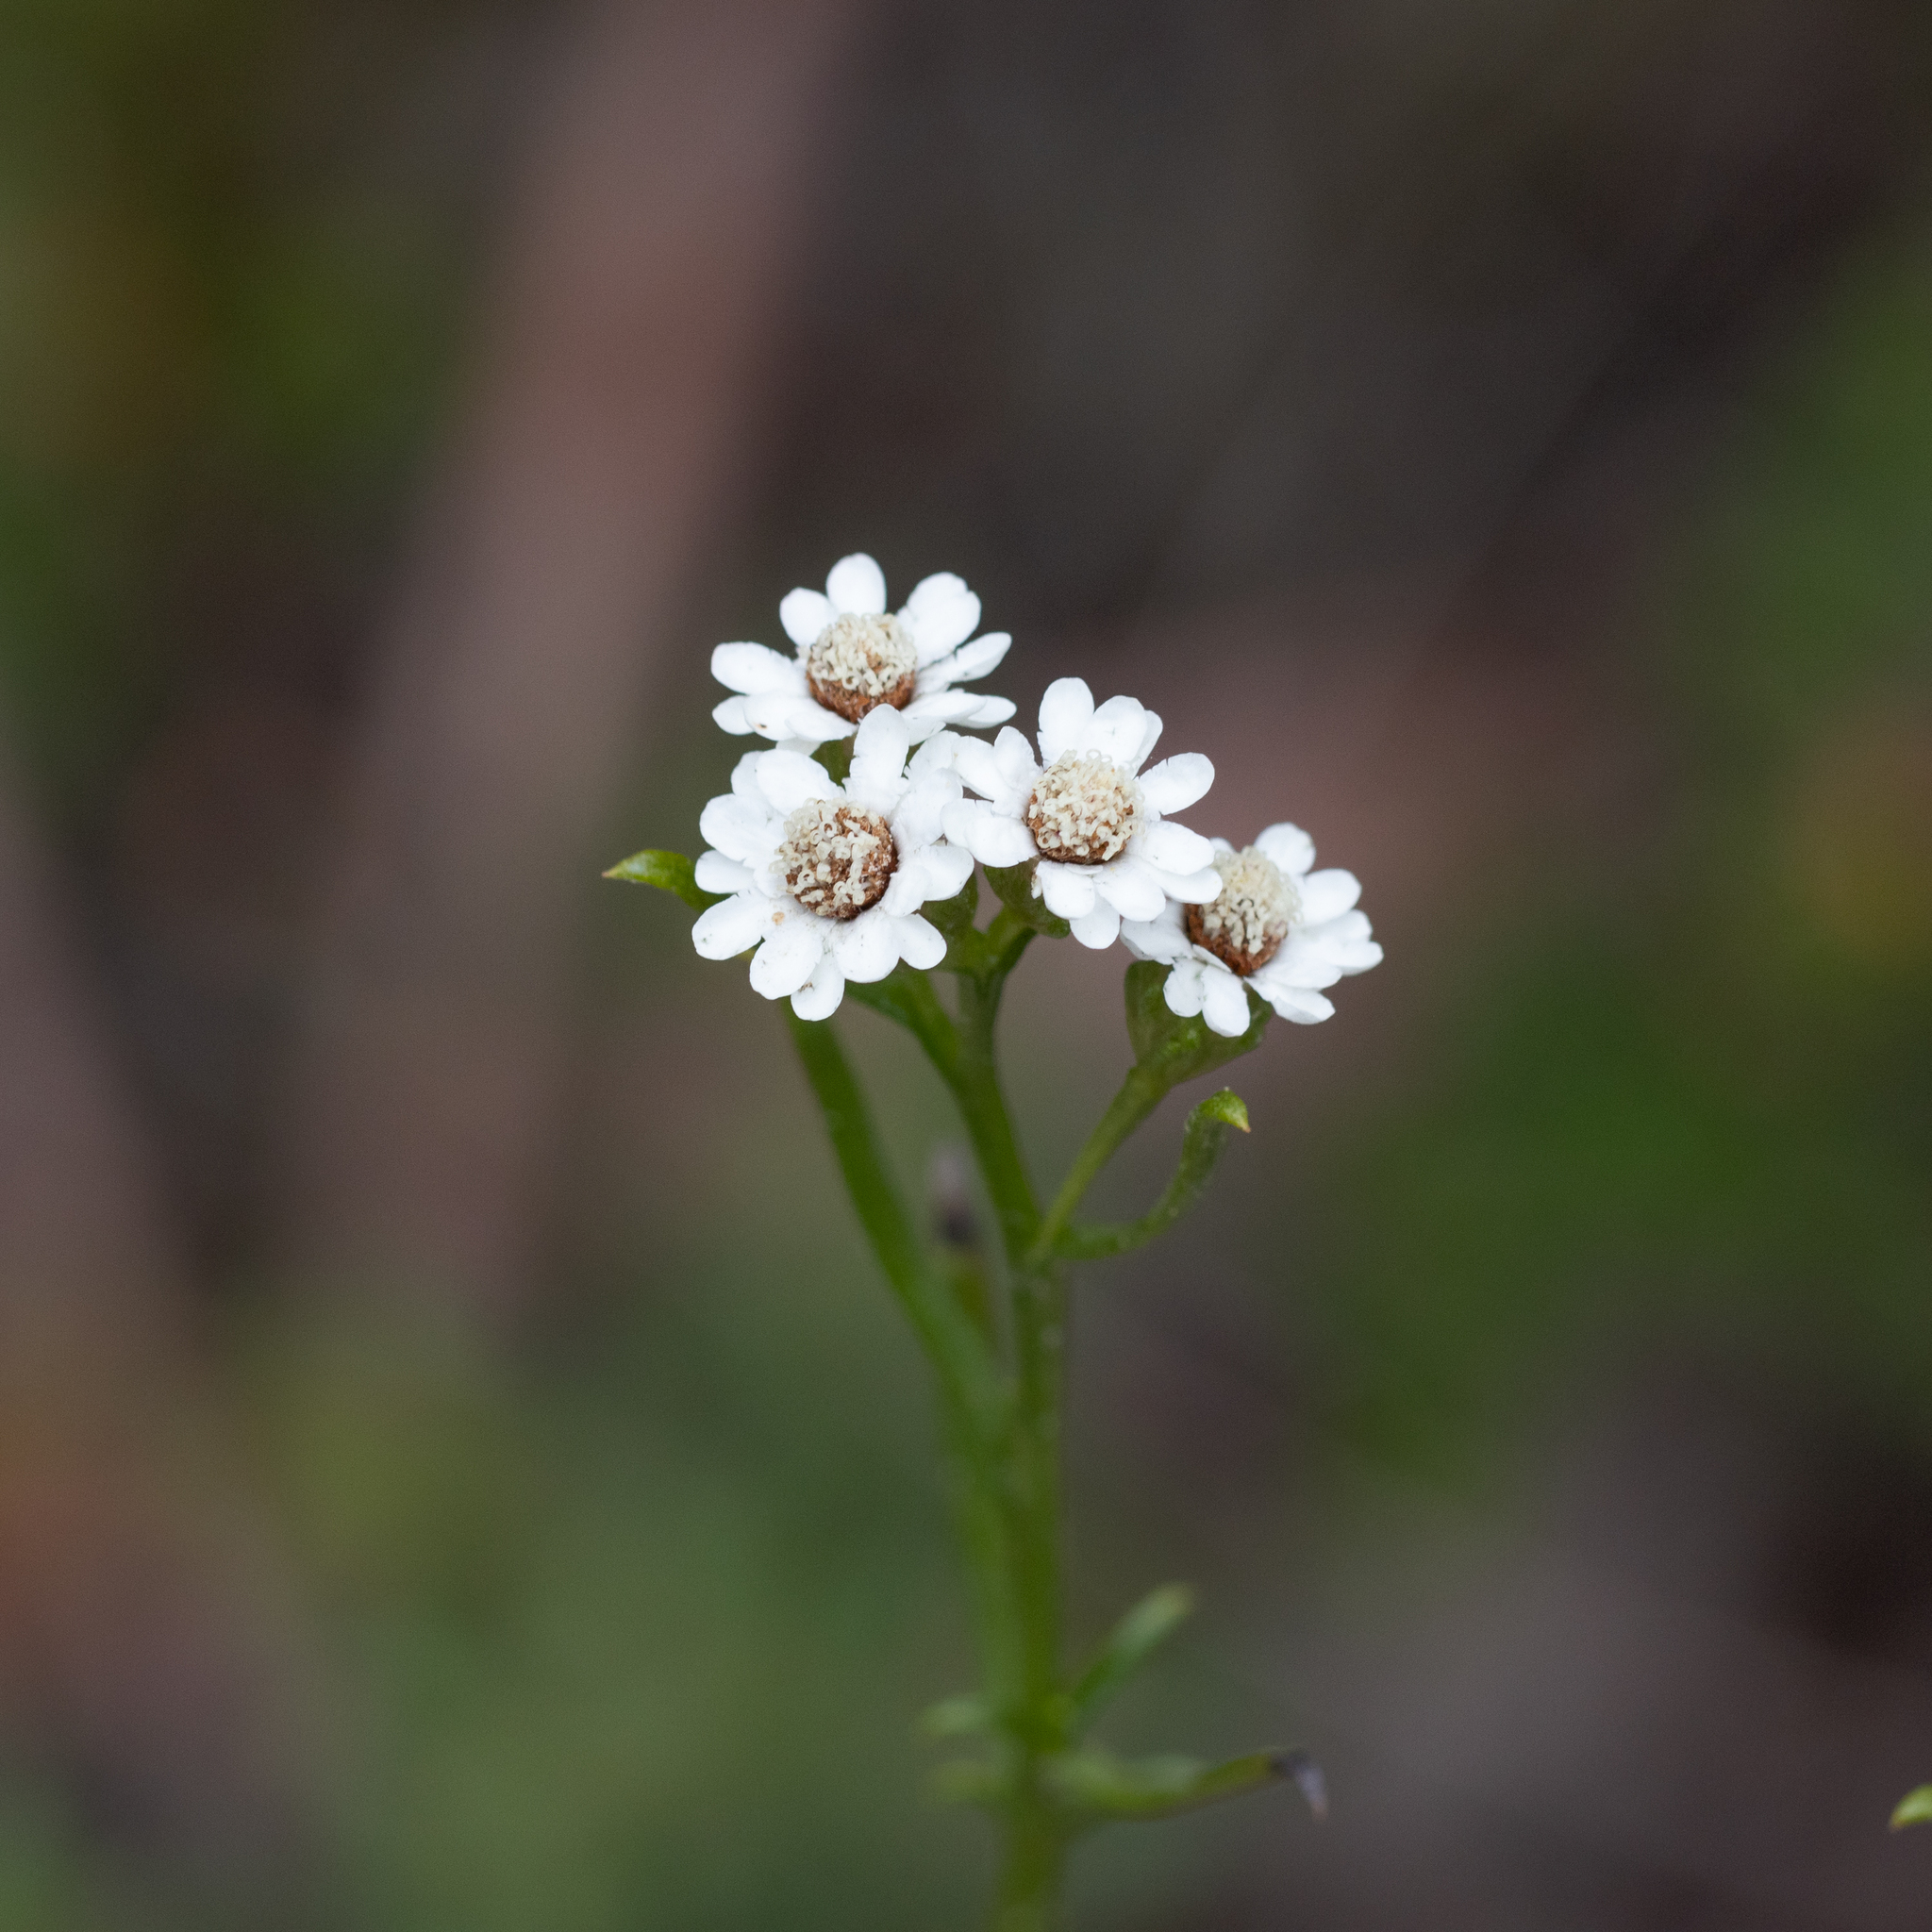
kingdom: Plantae
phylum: Tracheophyta
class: Magnoliopsida
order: Asterales
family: Asteraceae
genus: Ixodia
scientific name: Ixodia achillaeoides
